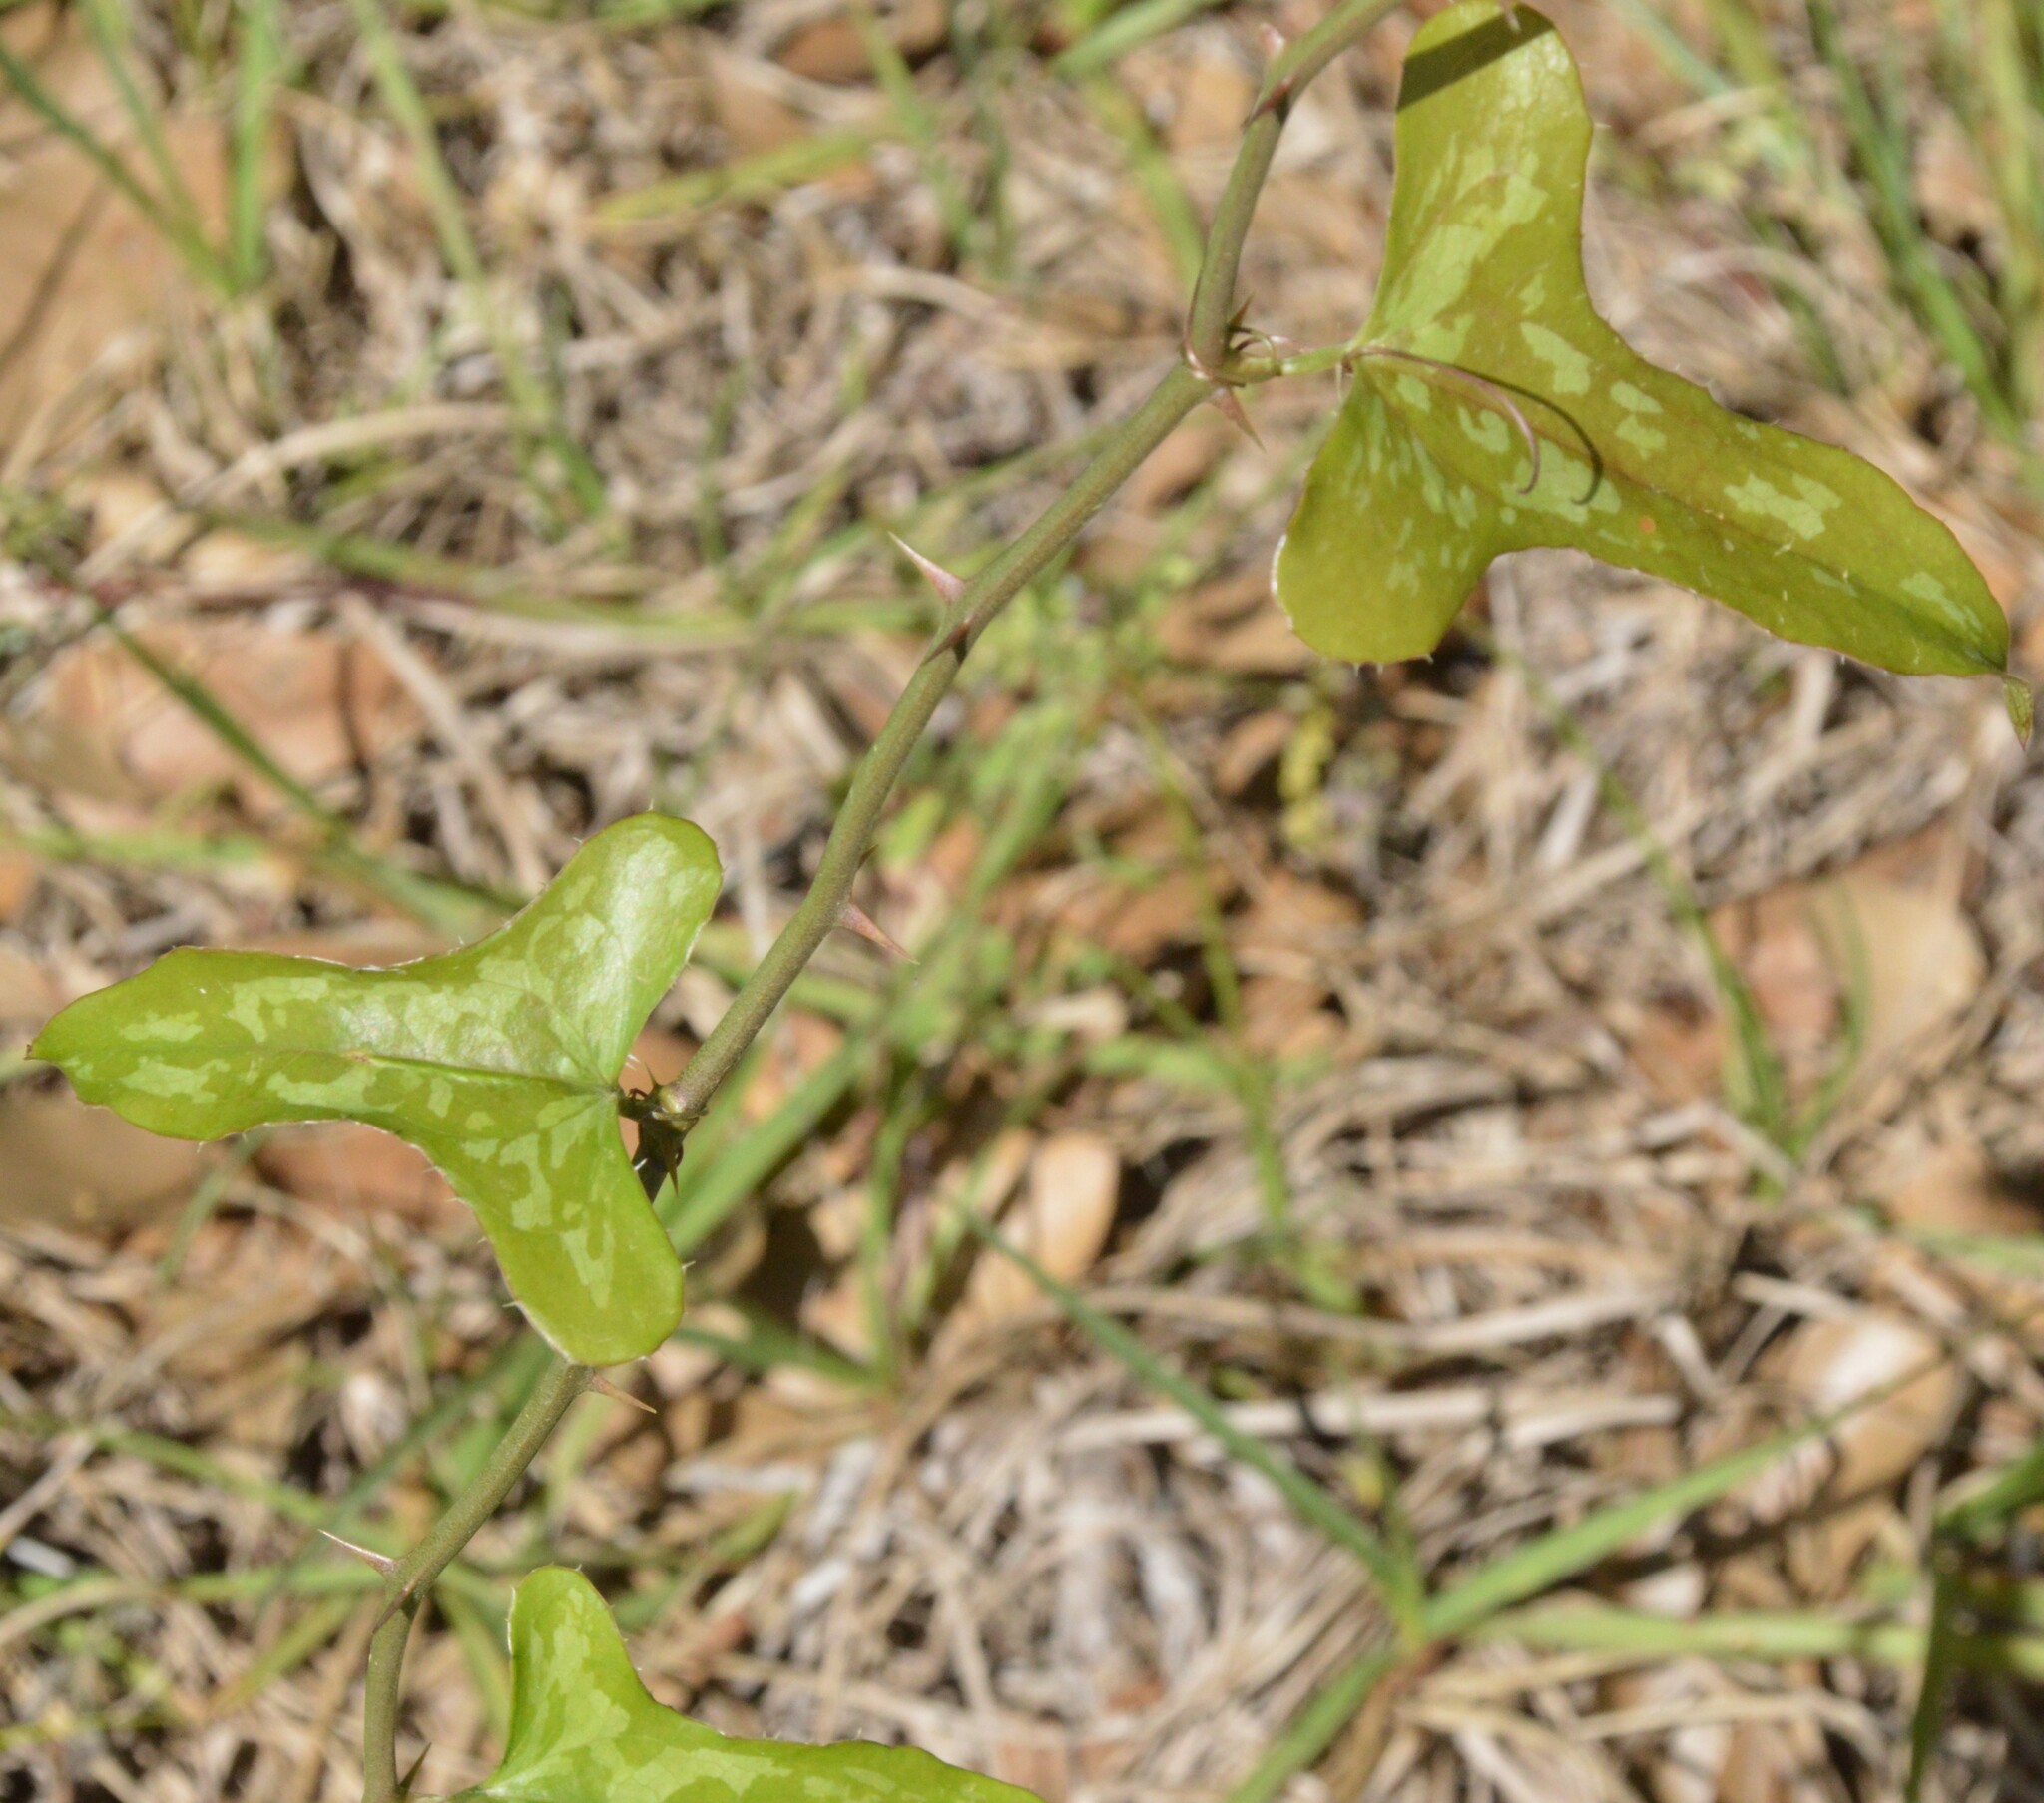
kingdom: Plantae
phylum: Tracheophyta
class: Liliopsida
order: Liliales
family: Smilacaceae
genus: Smilax
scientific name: Smilax bona-nox
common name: Catbrier
